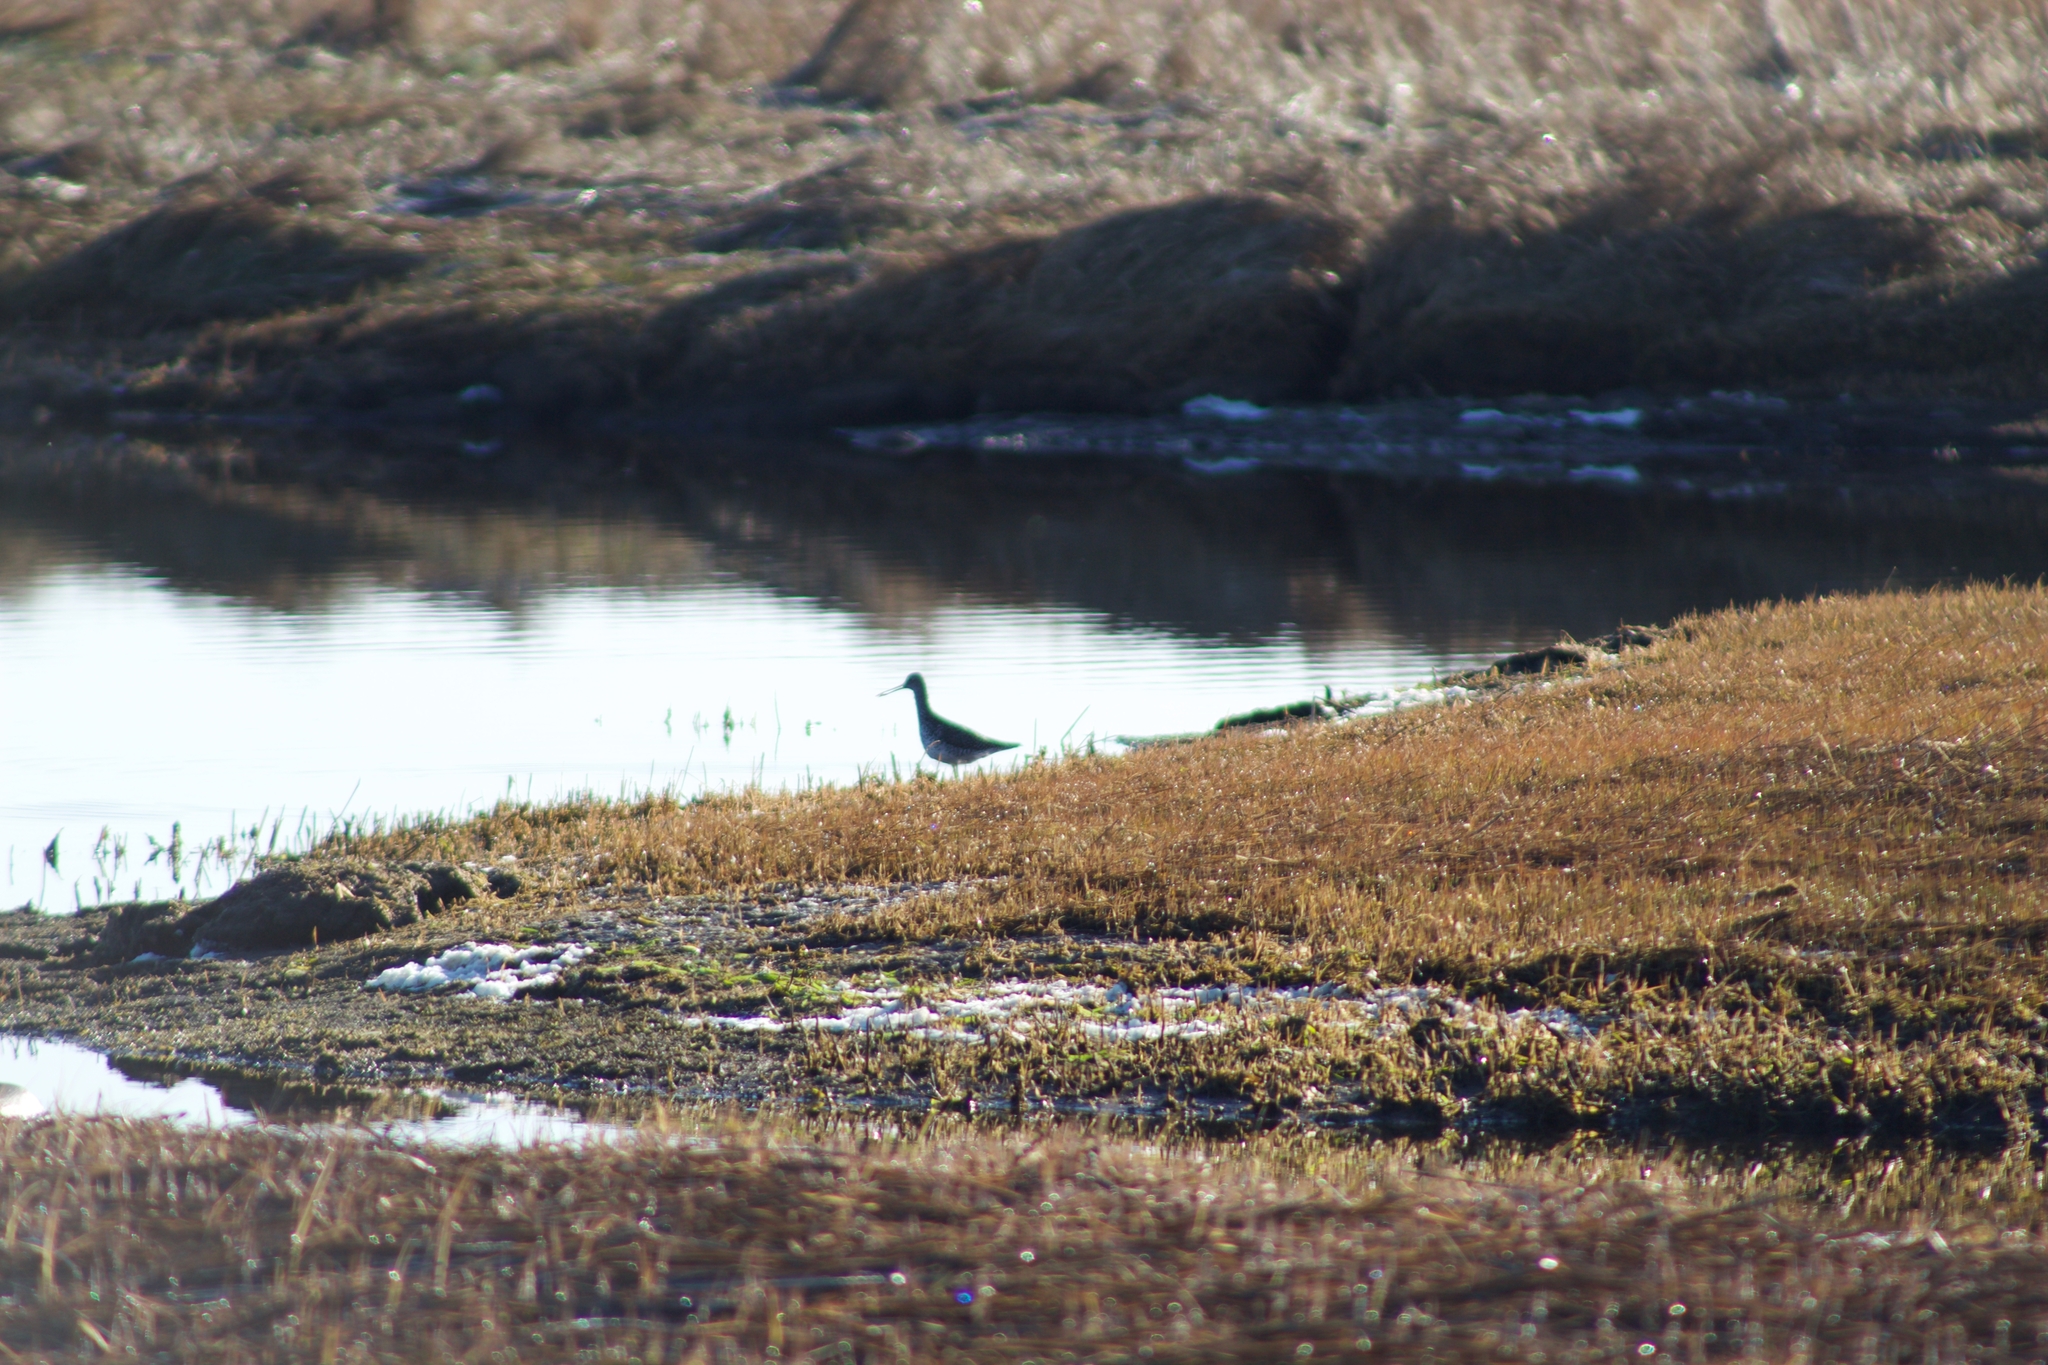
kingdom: Animalia
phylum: Chordata
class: Aves
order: Charadriiformes
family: Scolopacidae
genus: Tringa
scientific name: Tringa melanoleuca
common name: Greater yellowlegs
